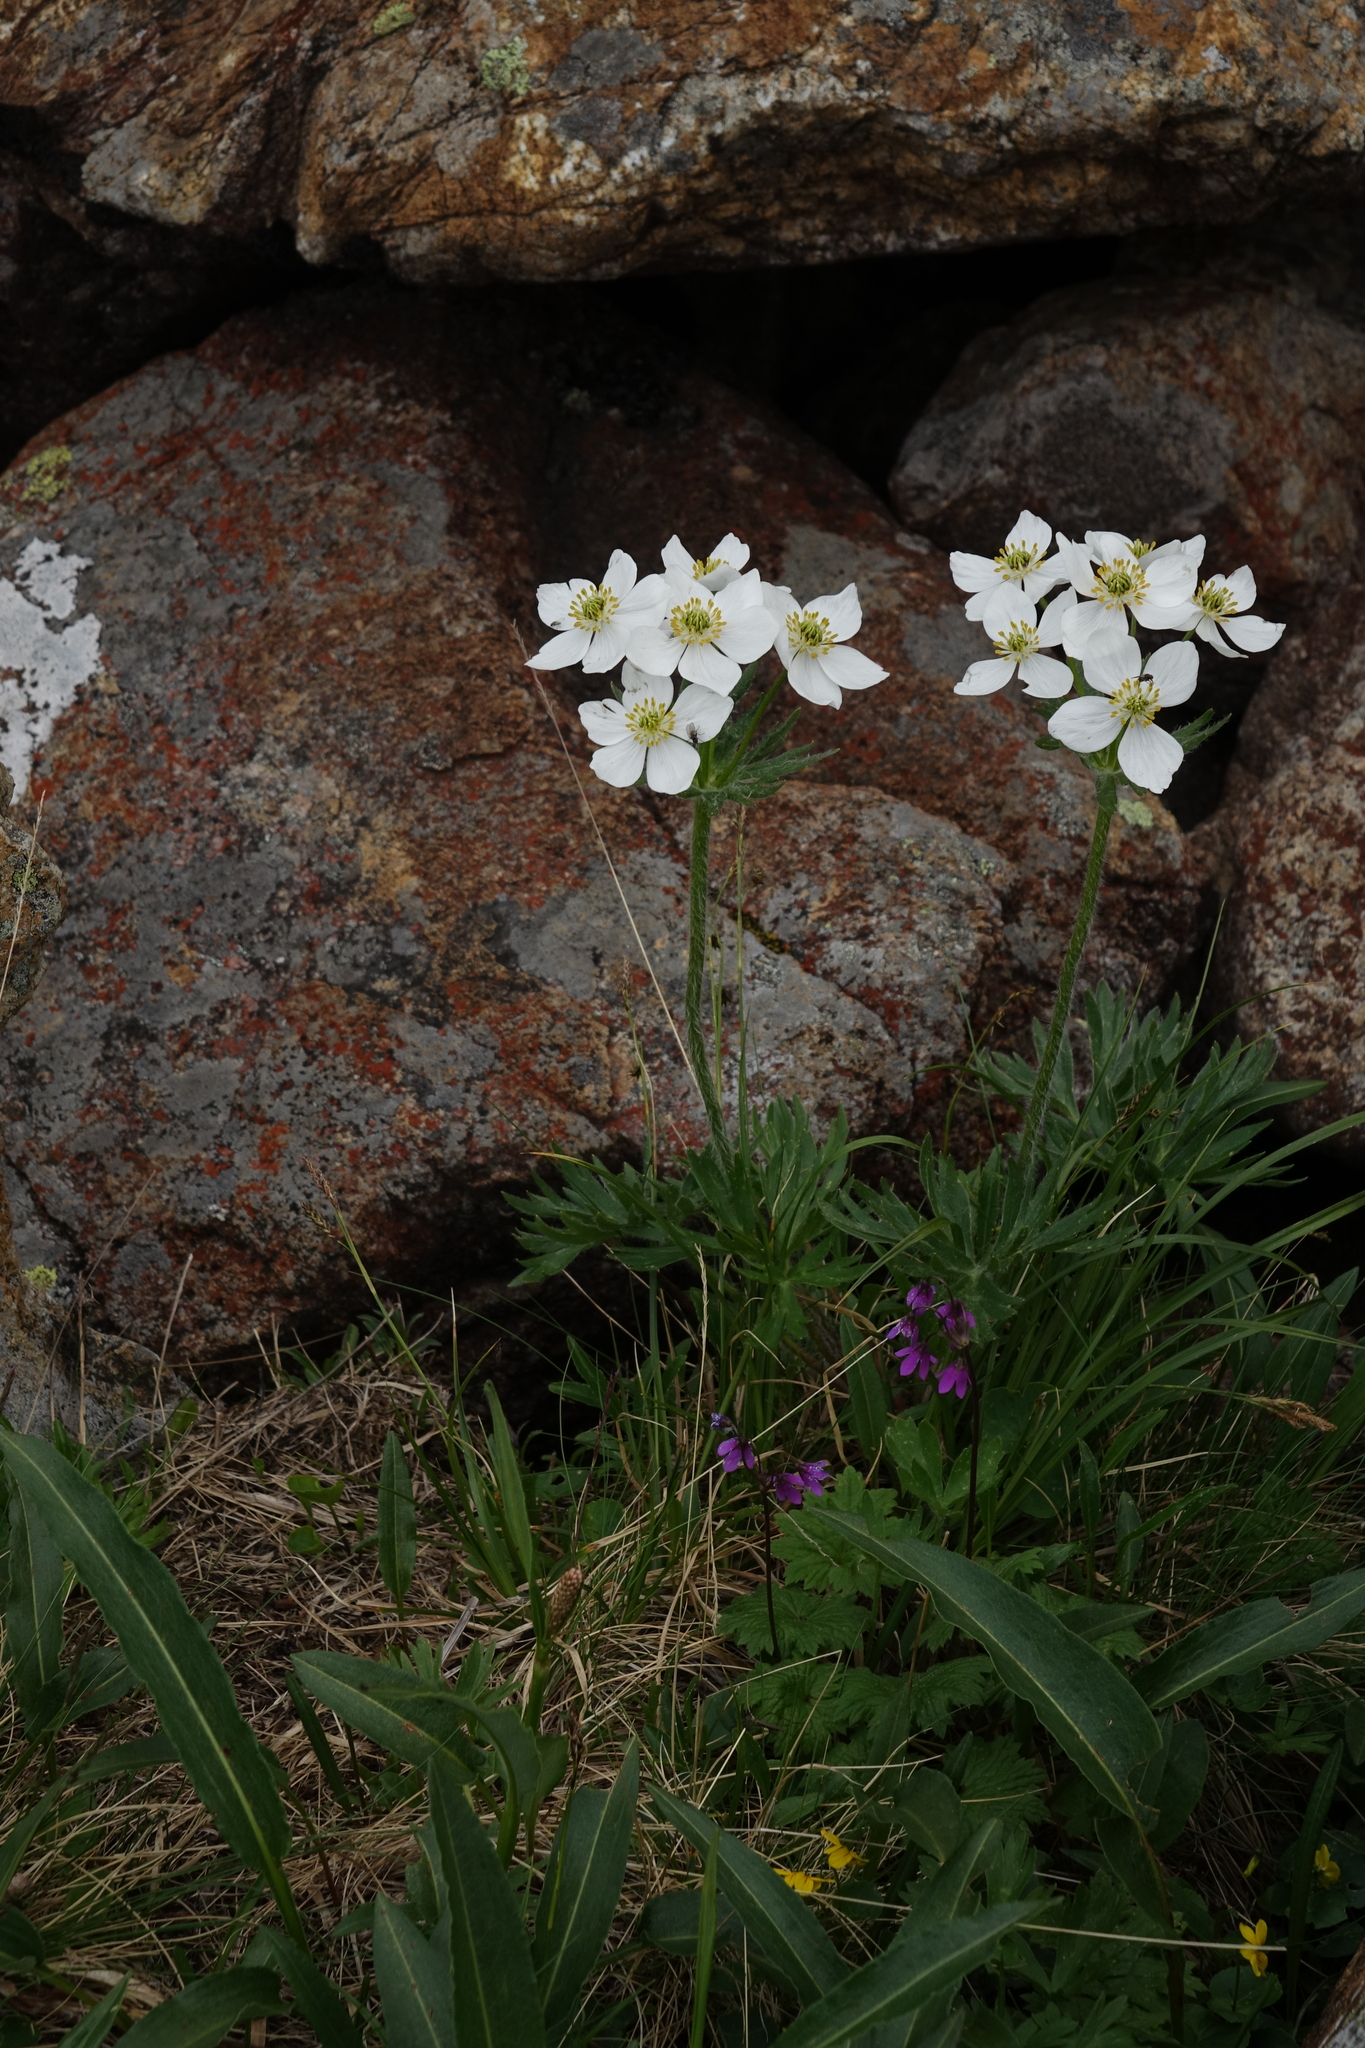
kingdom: Plantae
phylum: Tracheophyta
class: Magnoliopsida
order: Ranunculales
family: Ranunculaceae
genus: Anemonastrum
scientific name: Anemonastrum narcissiflorum
